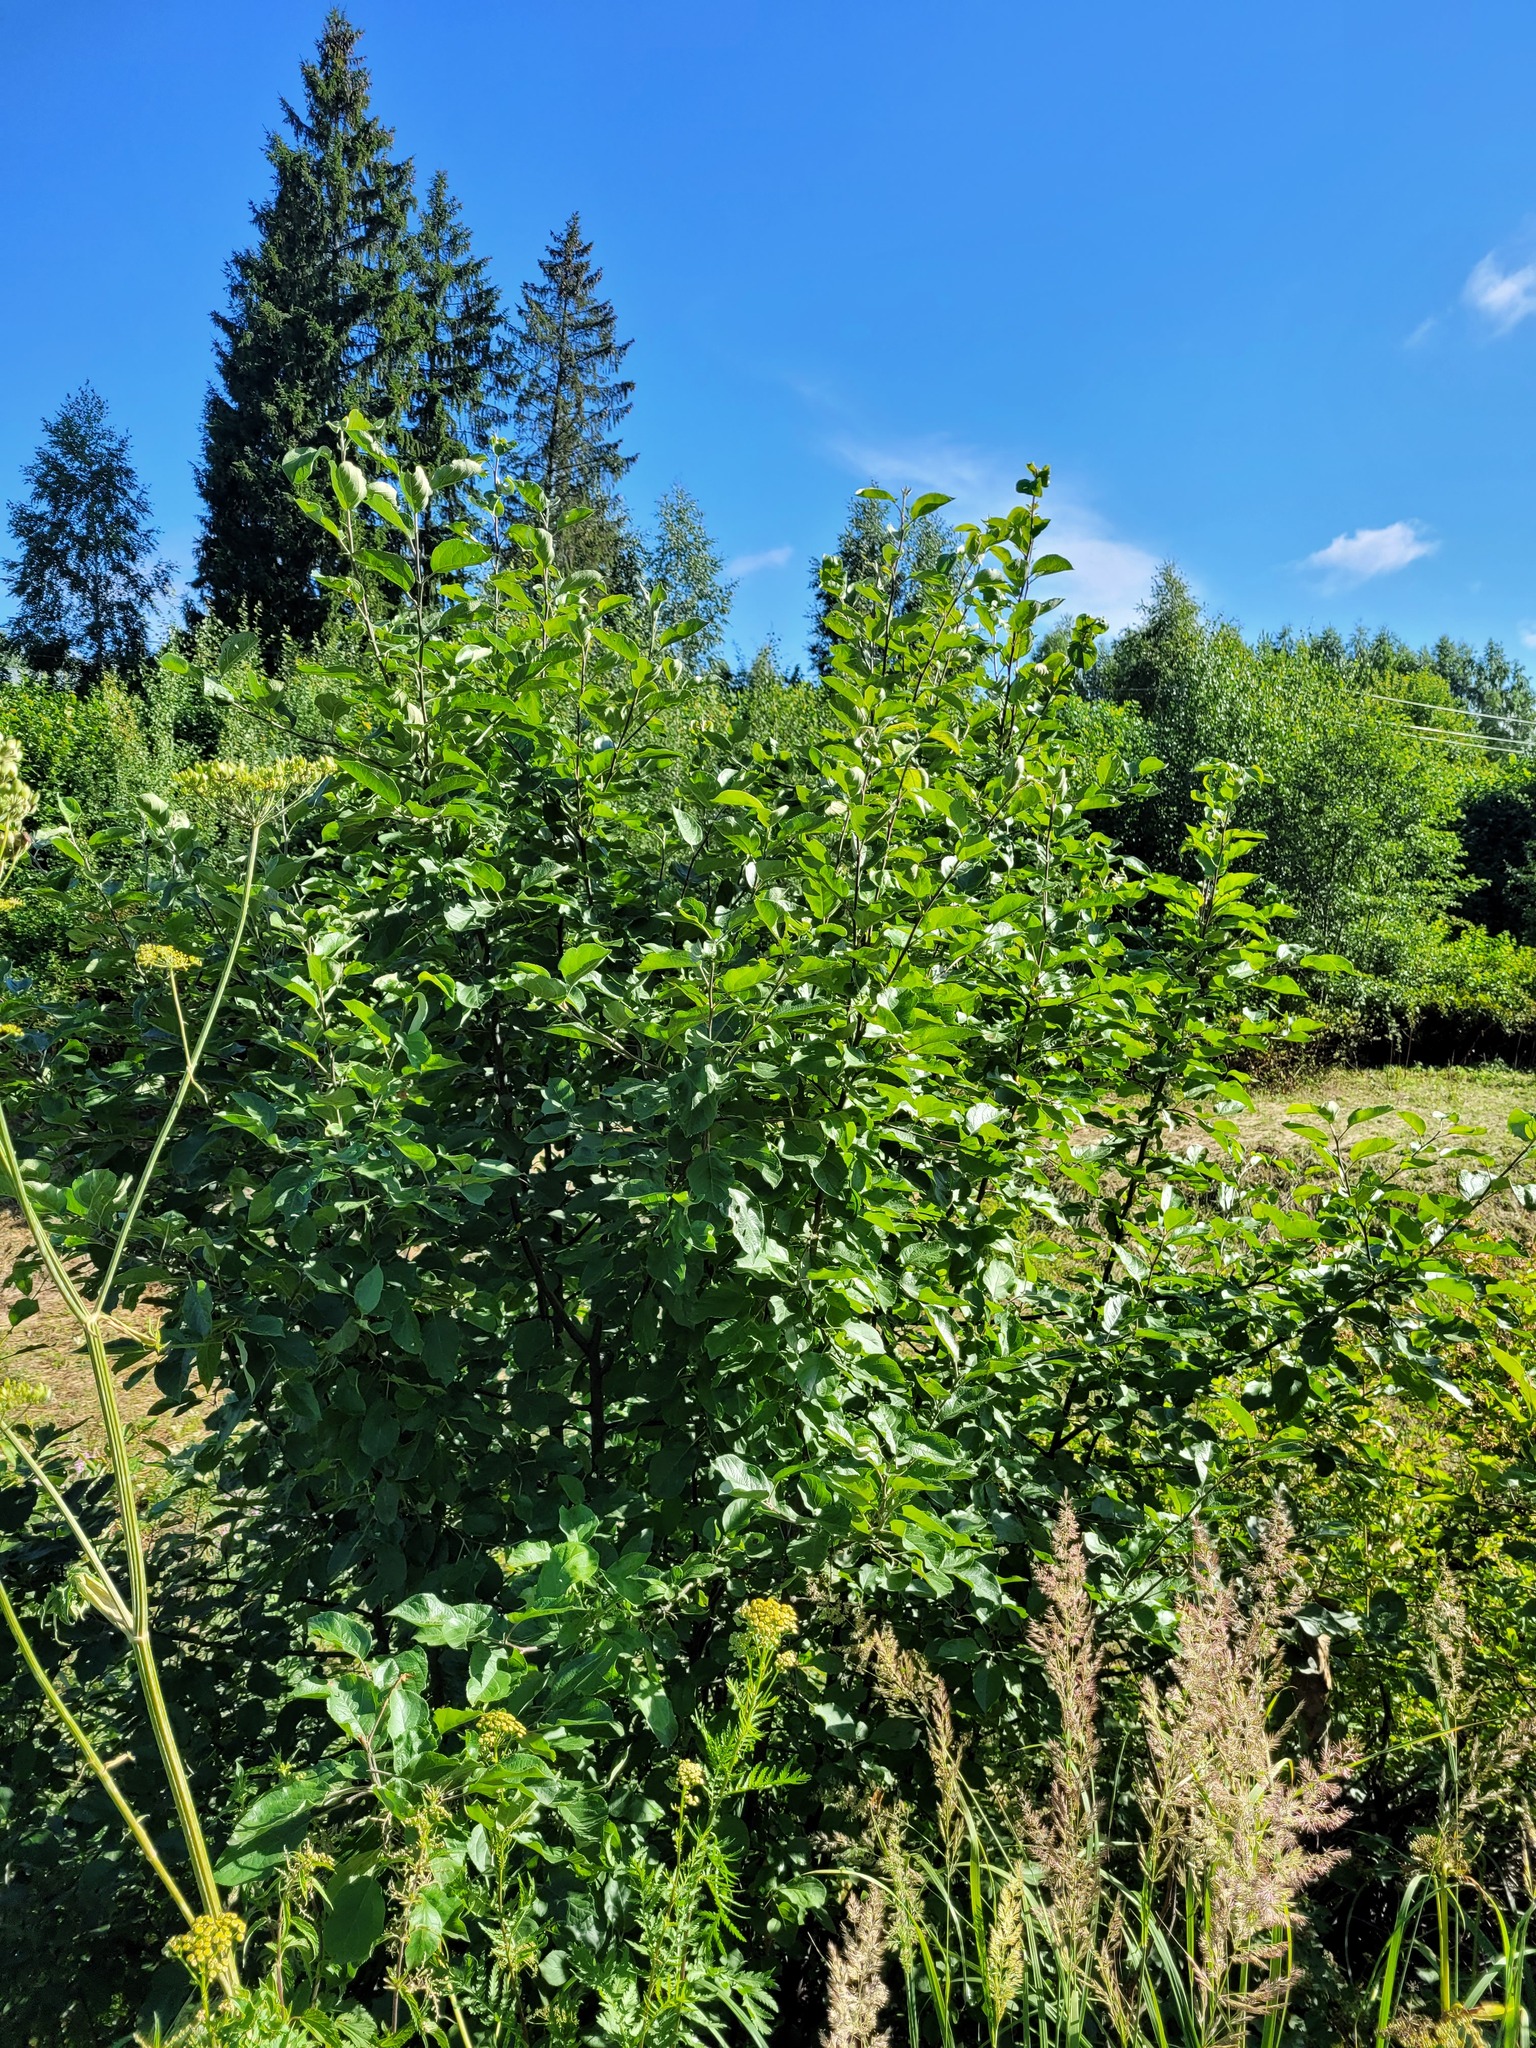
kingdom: Plantae
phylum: Tracheophyta
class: Magnoliopsida
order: Rosales
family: Rosaceae
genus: Malus
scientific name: Malus domestica
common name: Apple
